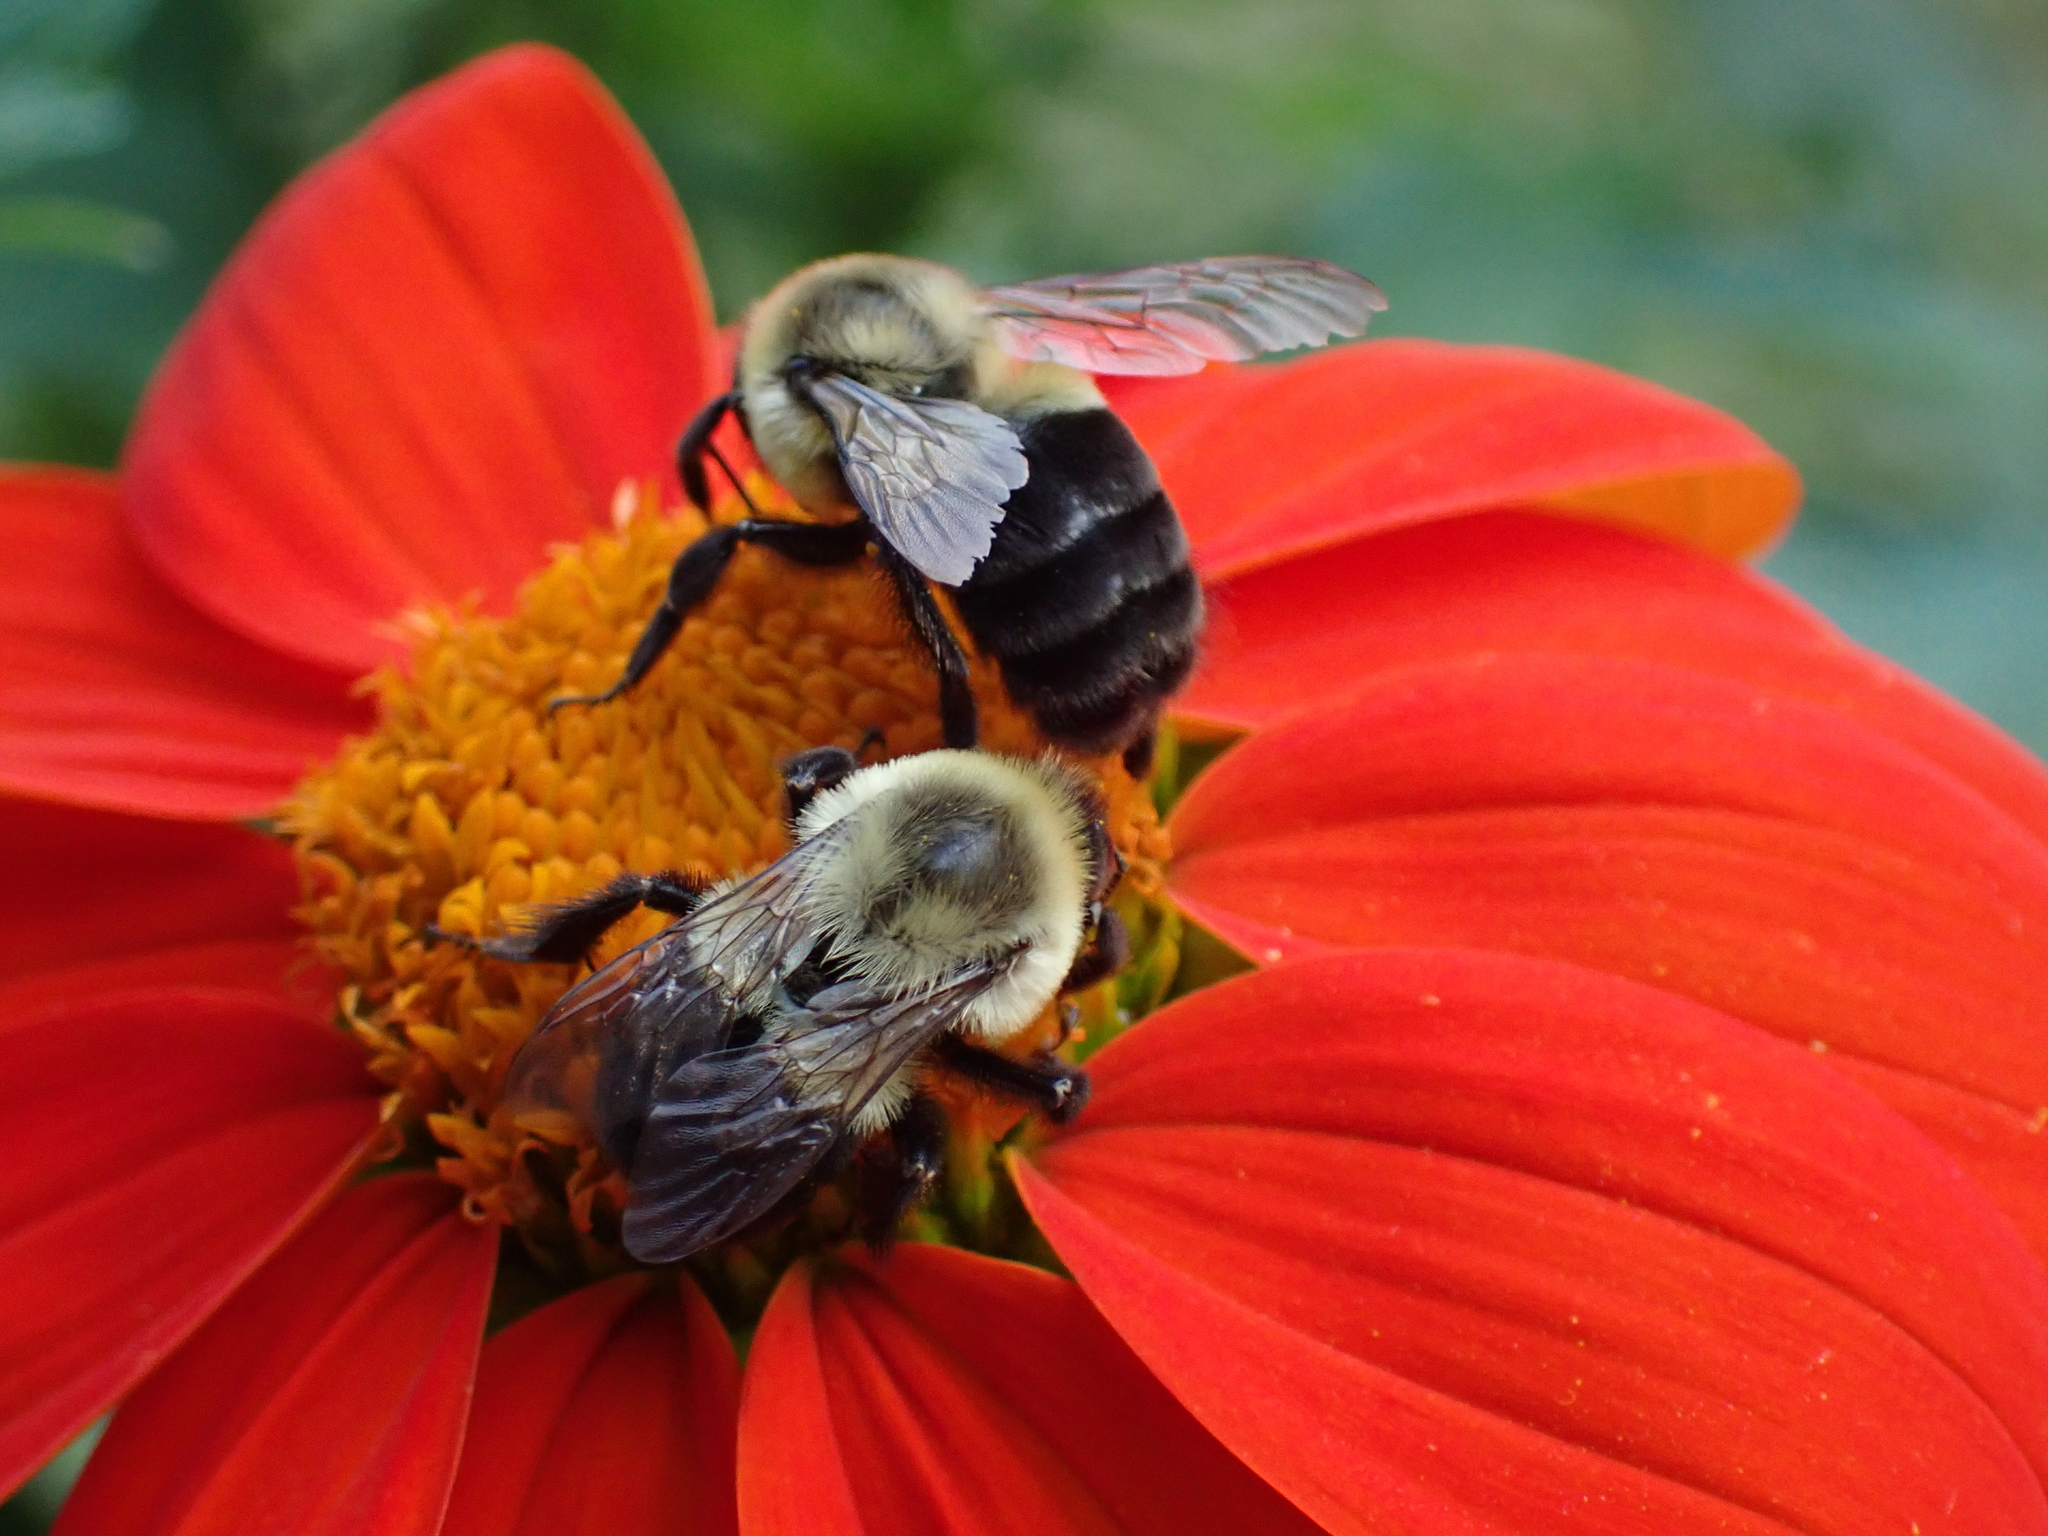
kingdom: Animalia
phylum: Arthropoda
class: Insecta
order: Hymenoptera
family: Apidae
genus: Bombus
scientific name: Bombus impatiens
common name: Common eastern bumble bee
